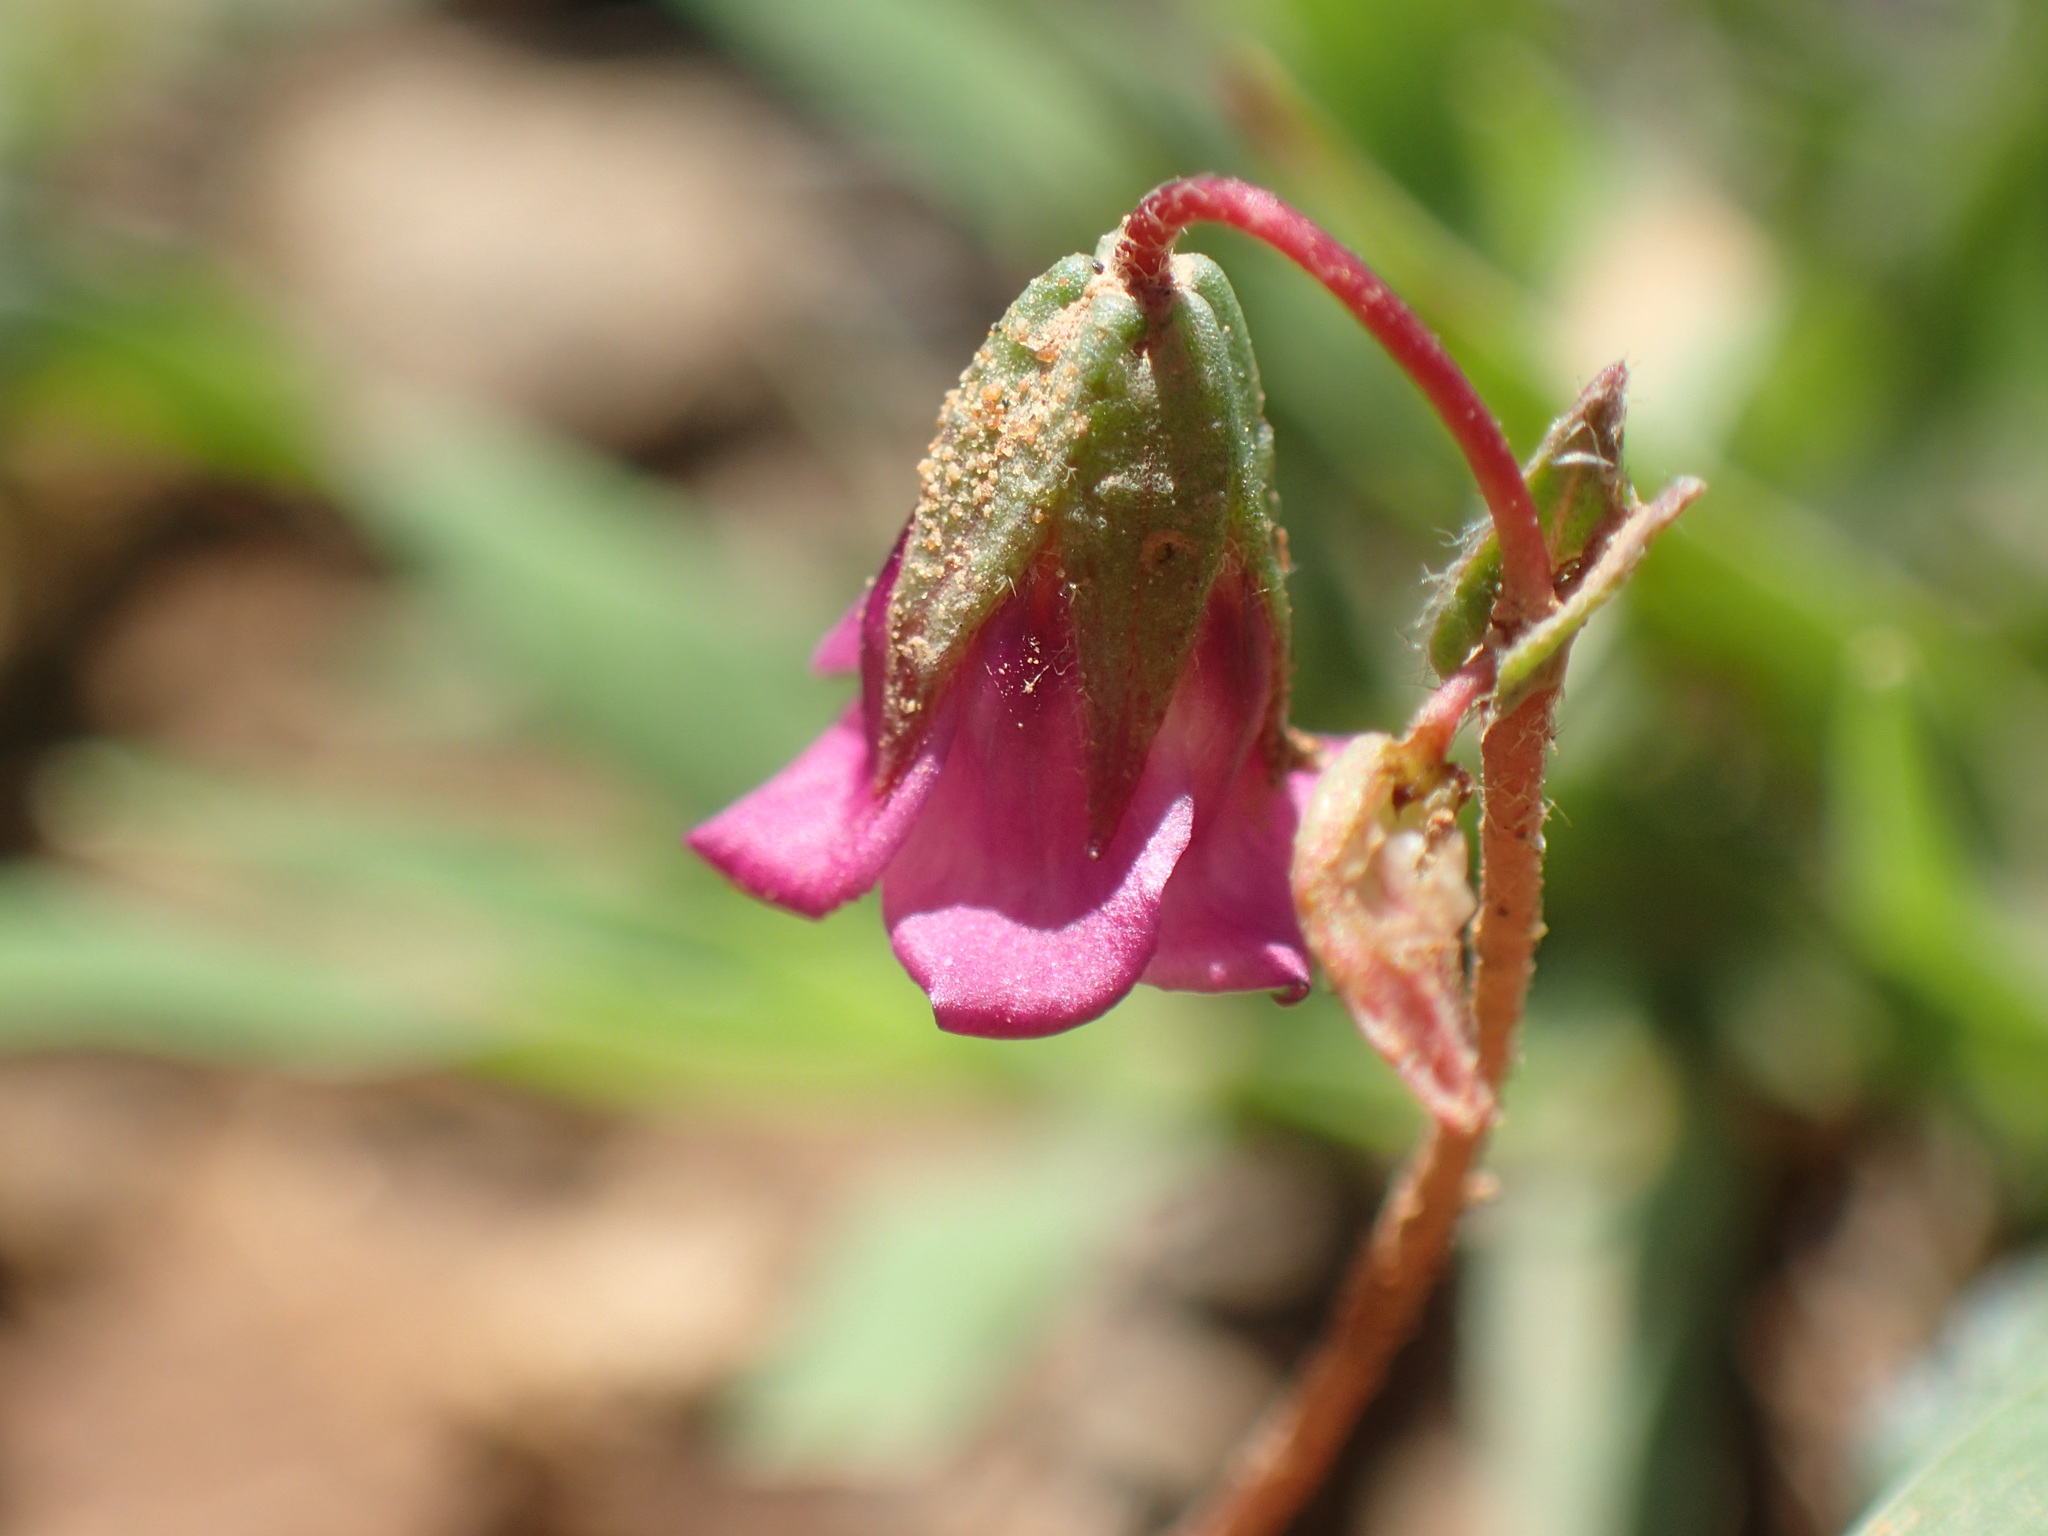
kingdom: Plantae
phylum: Tracheophyta
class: Magnoliopsida
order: Malvales
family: Malvaceae
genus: Hermannia
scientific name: Hermannia coccocarpa
